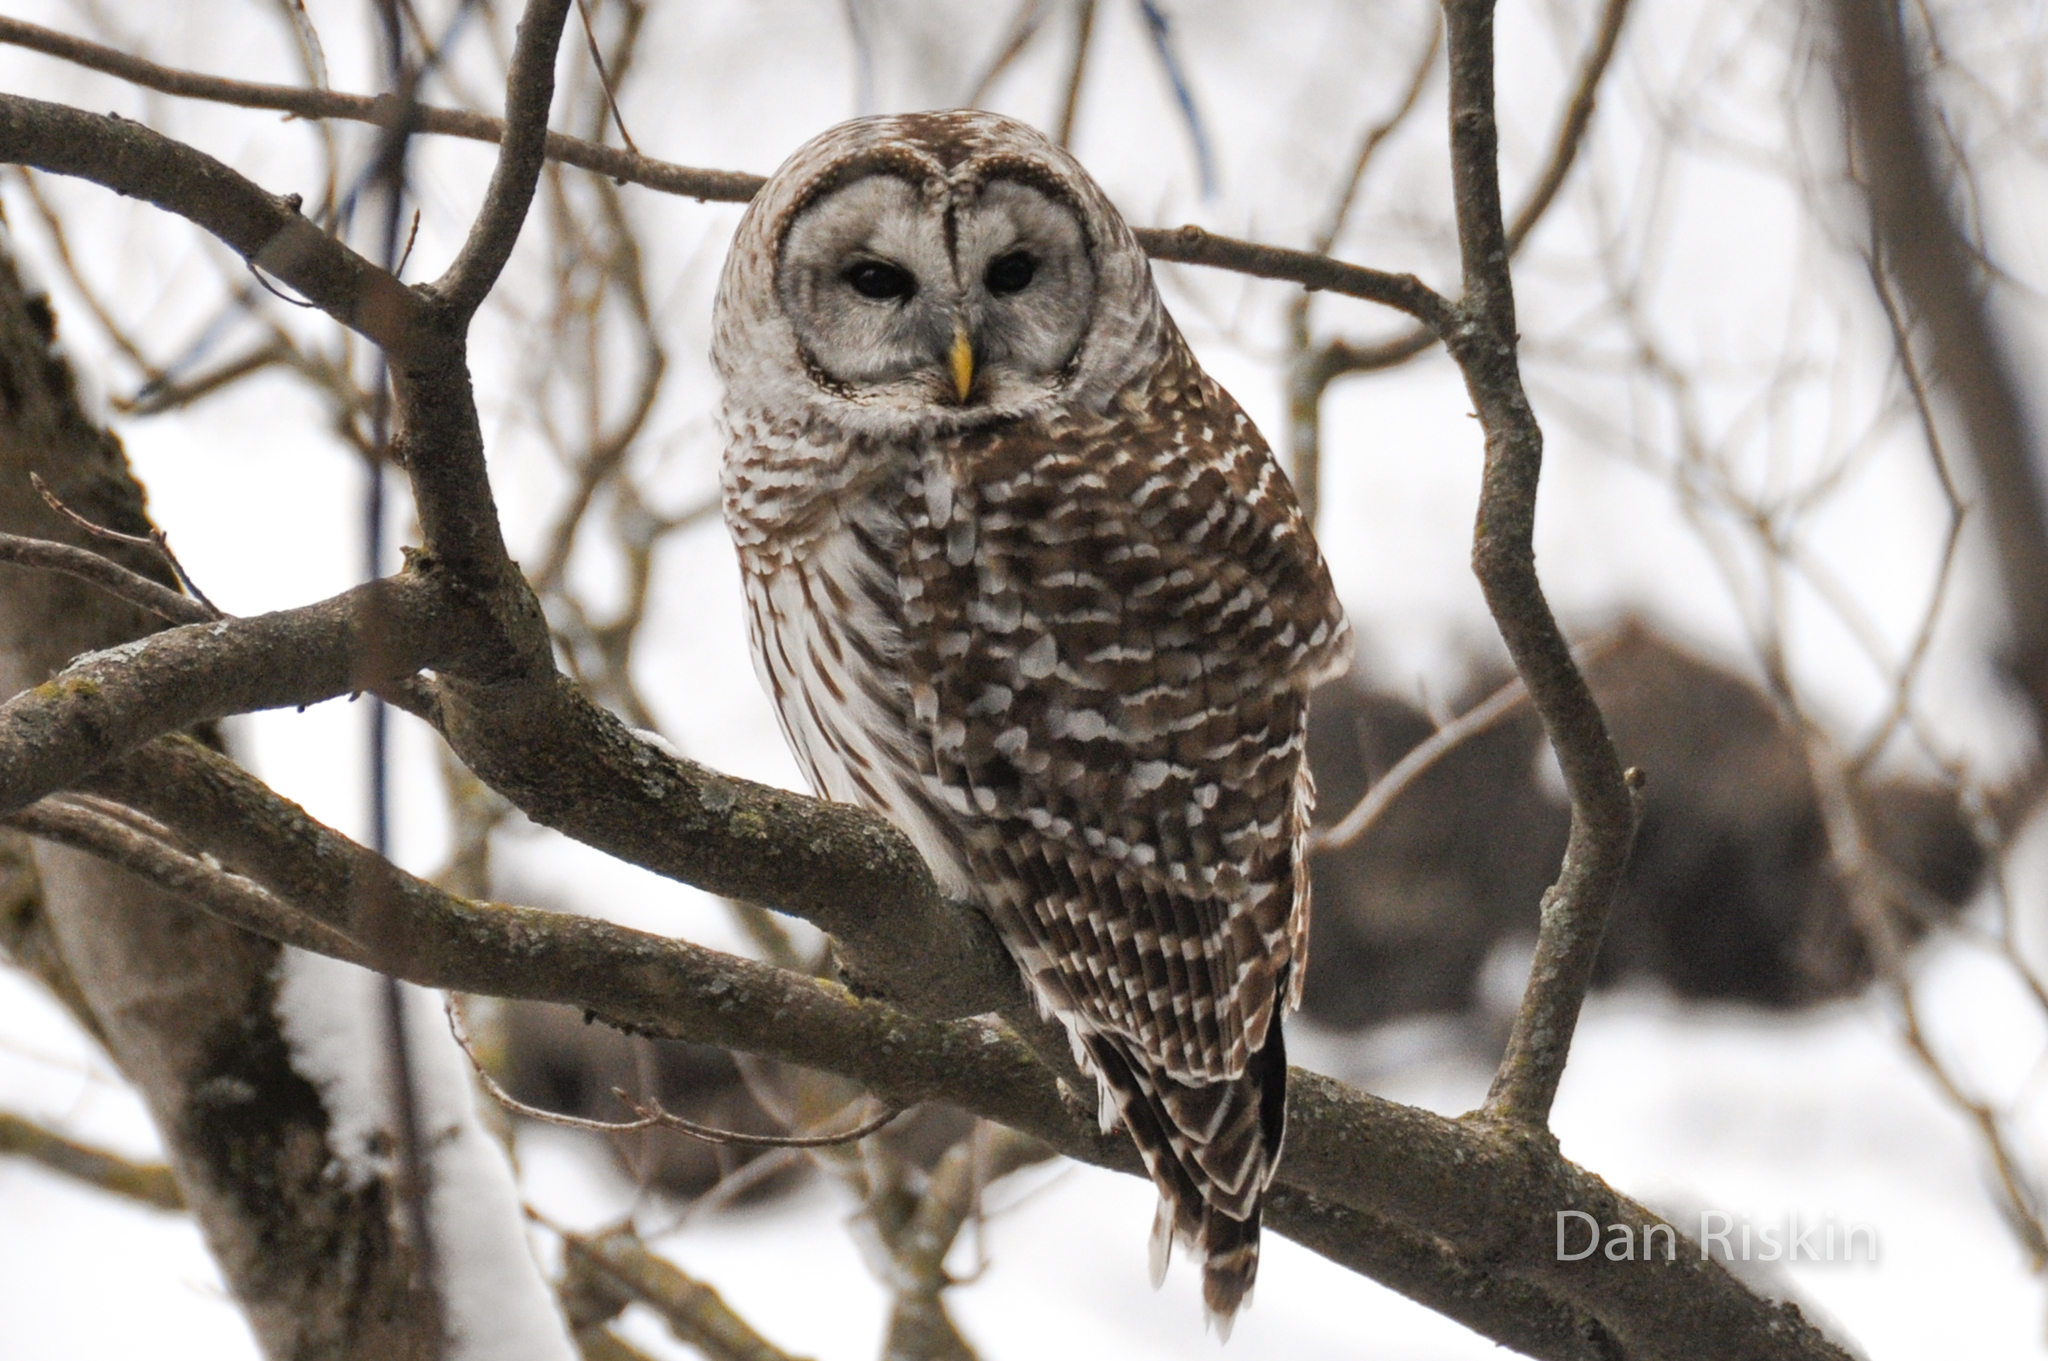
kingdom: Animalia
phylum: Chordata
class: Aves
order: Strigiformes
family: Strigidae
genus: Strix
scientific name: Strix varia
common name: Barred owl
